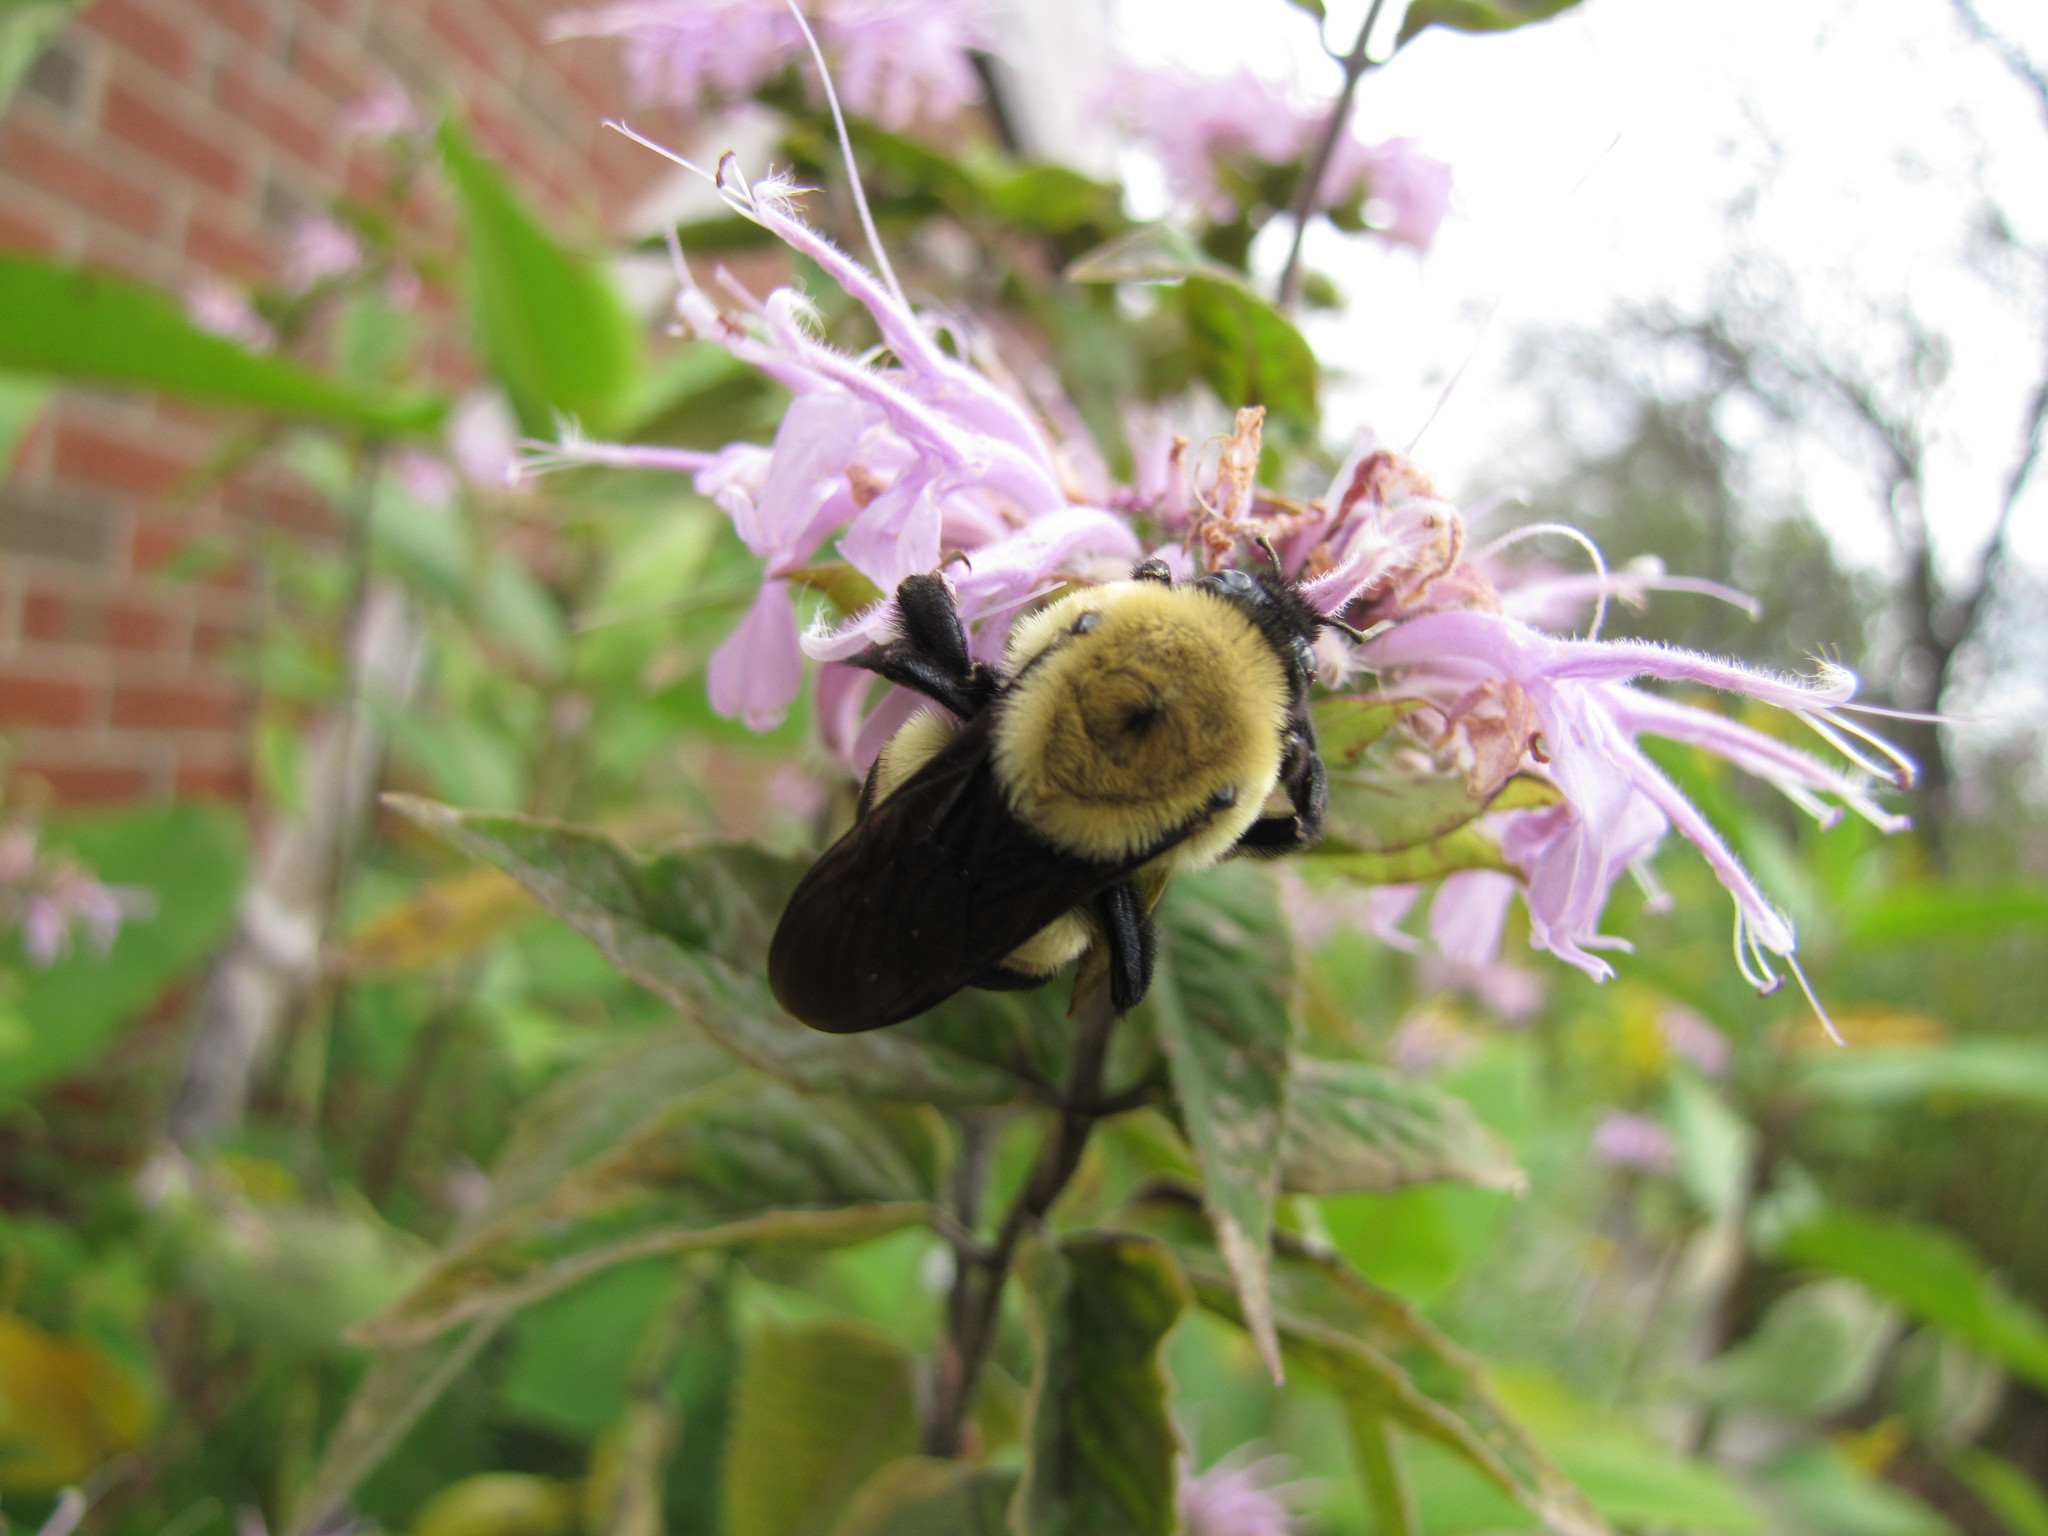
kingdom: Animalia
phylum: Arthropoda
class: Insecta
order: Hymenoptera
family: Apidae
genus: Bombus
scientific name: Bombus
